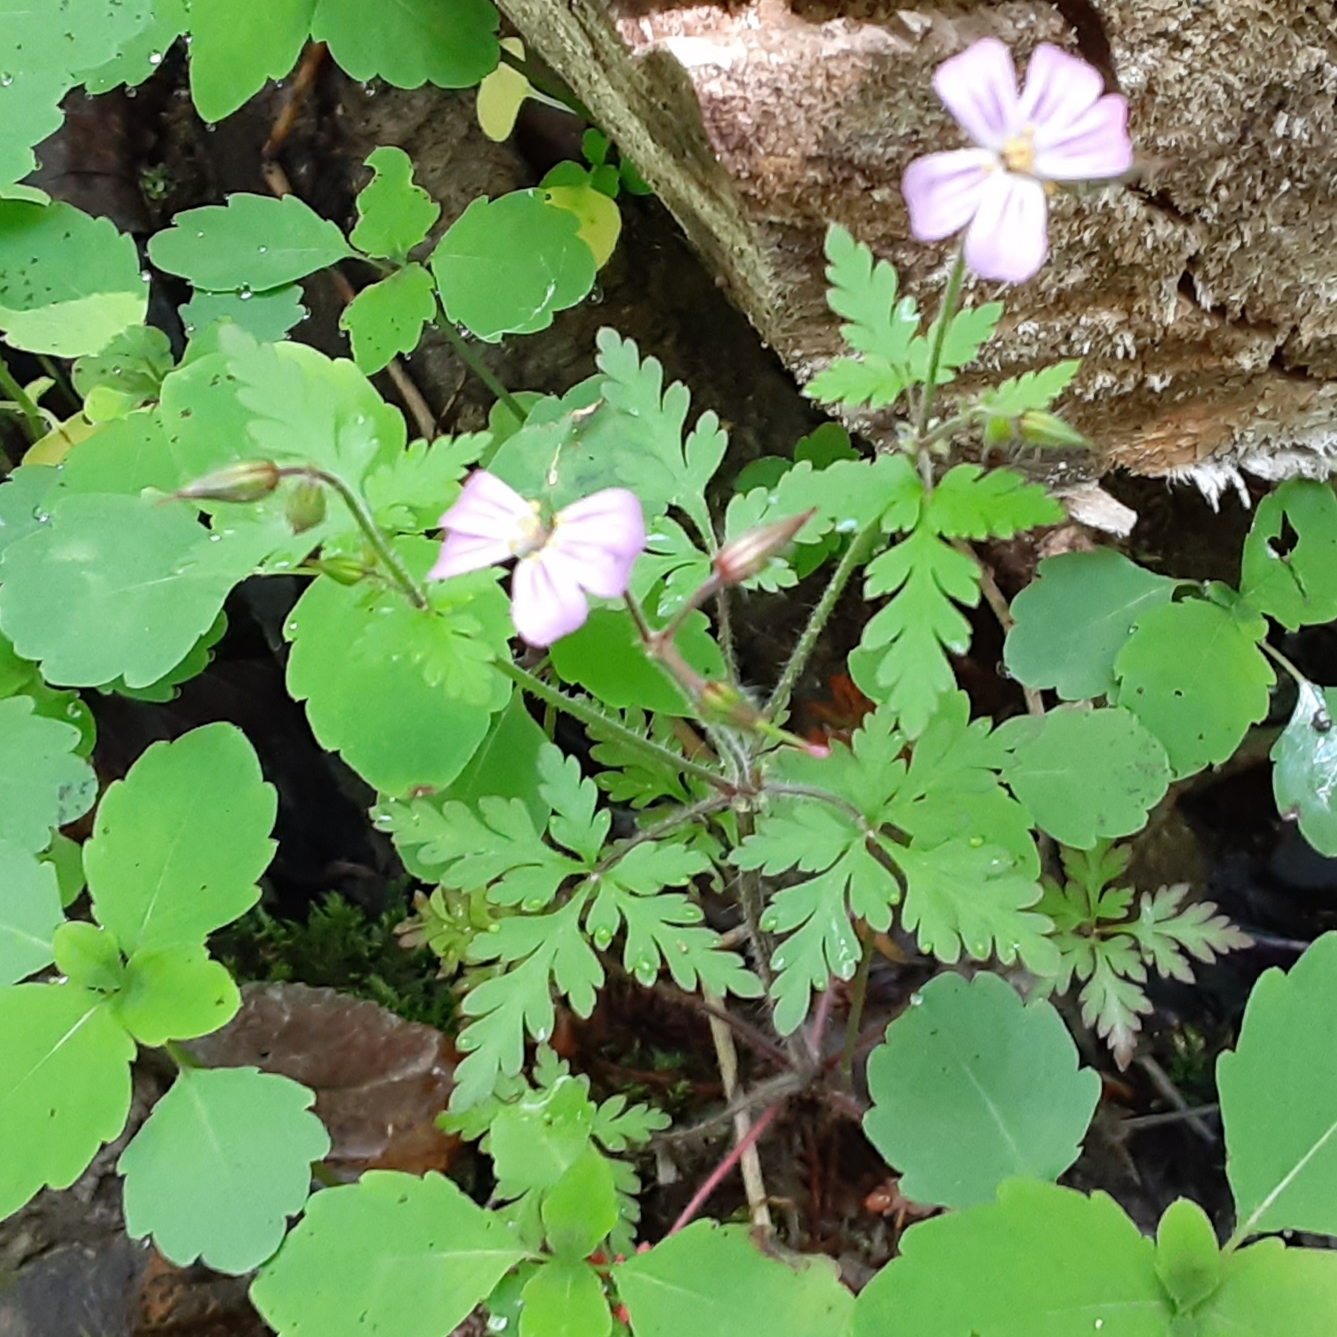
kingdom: Plantae
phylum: Tracheophyta
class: Magnoliopsida
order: Geraniales
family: Geraniaceae
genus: Geranium
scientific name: Geranium robertianum
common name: Herb-robert
